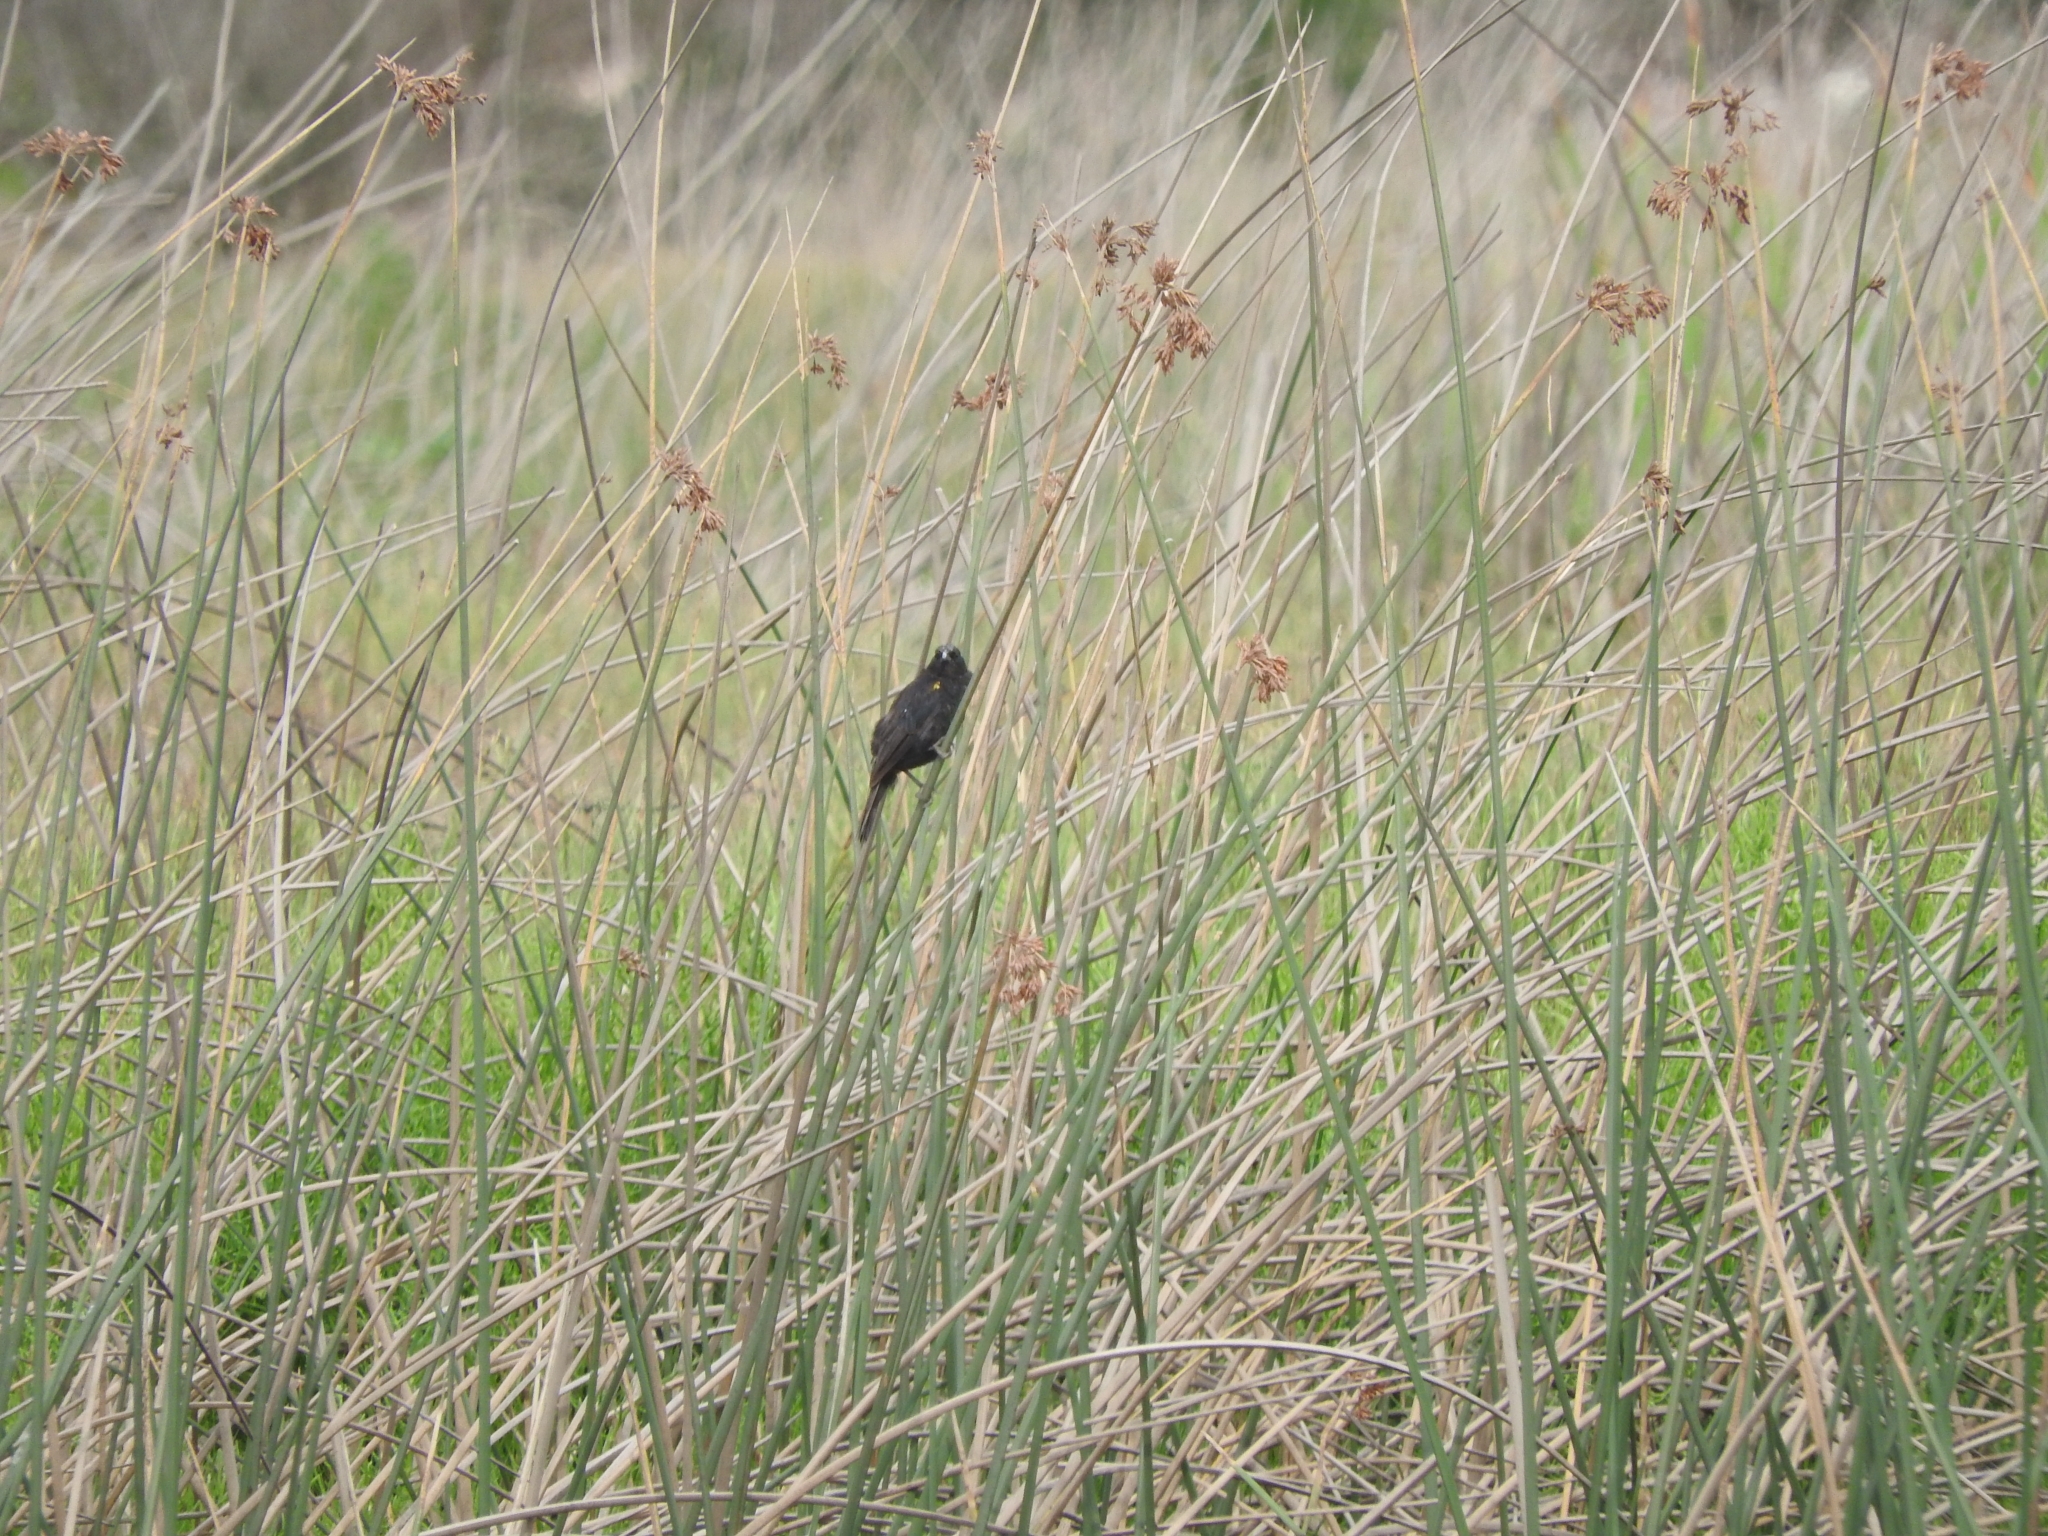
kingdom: Animalia
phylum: Chordata
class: Aves
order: Passeriformes
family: Icteridae
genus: Agelasticus
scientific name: Agelasticus thilius
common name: Yellow-winged blackbird
